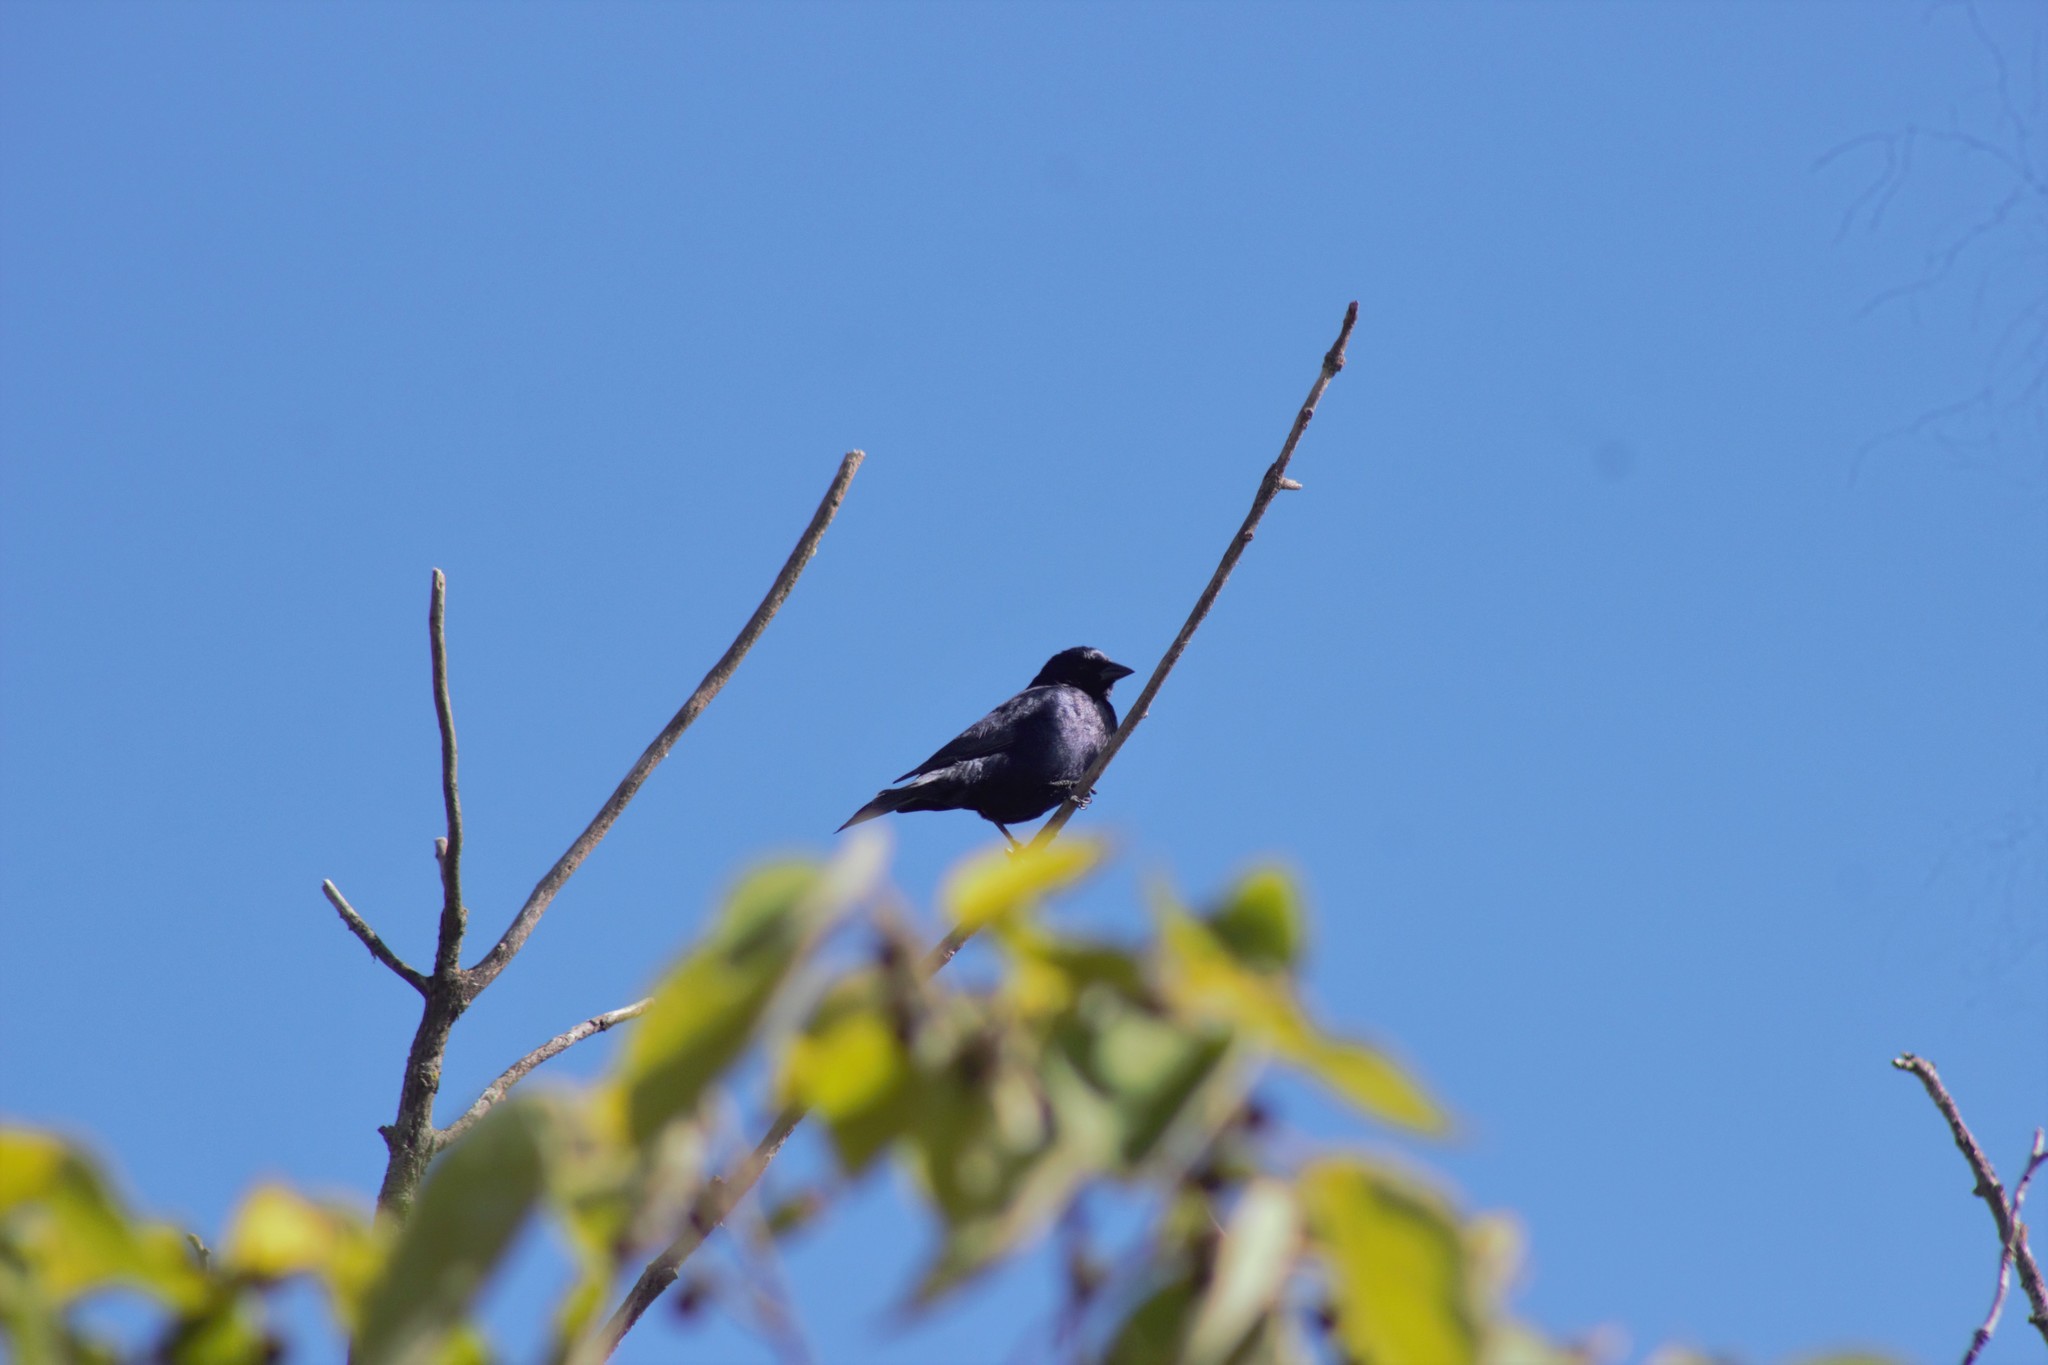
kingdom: Animalia
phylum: Chordata
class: Aves
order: Passeriformes
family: Icteridae
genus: Molothrus
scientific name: Molothrus bonariensis
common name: Shiny cowbird
